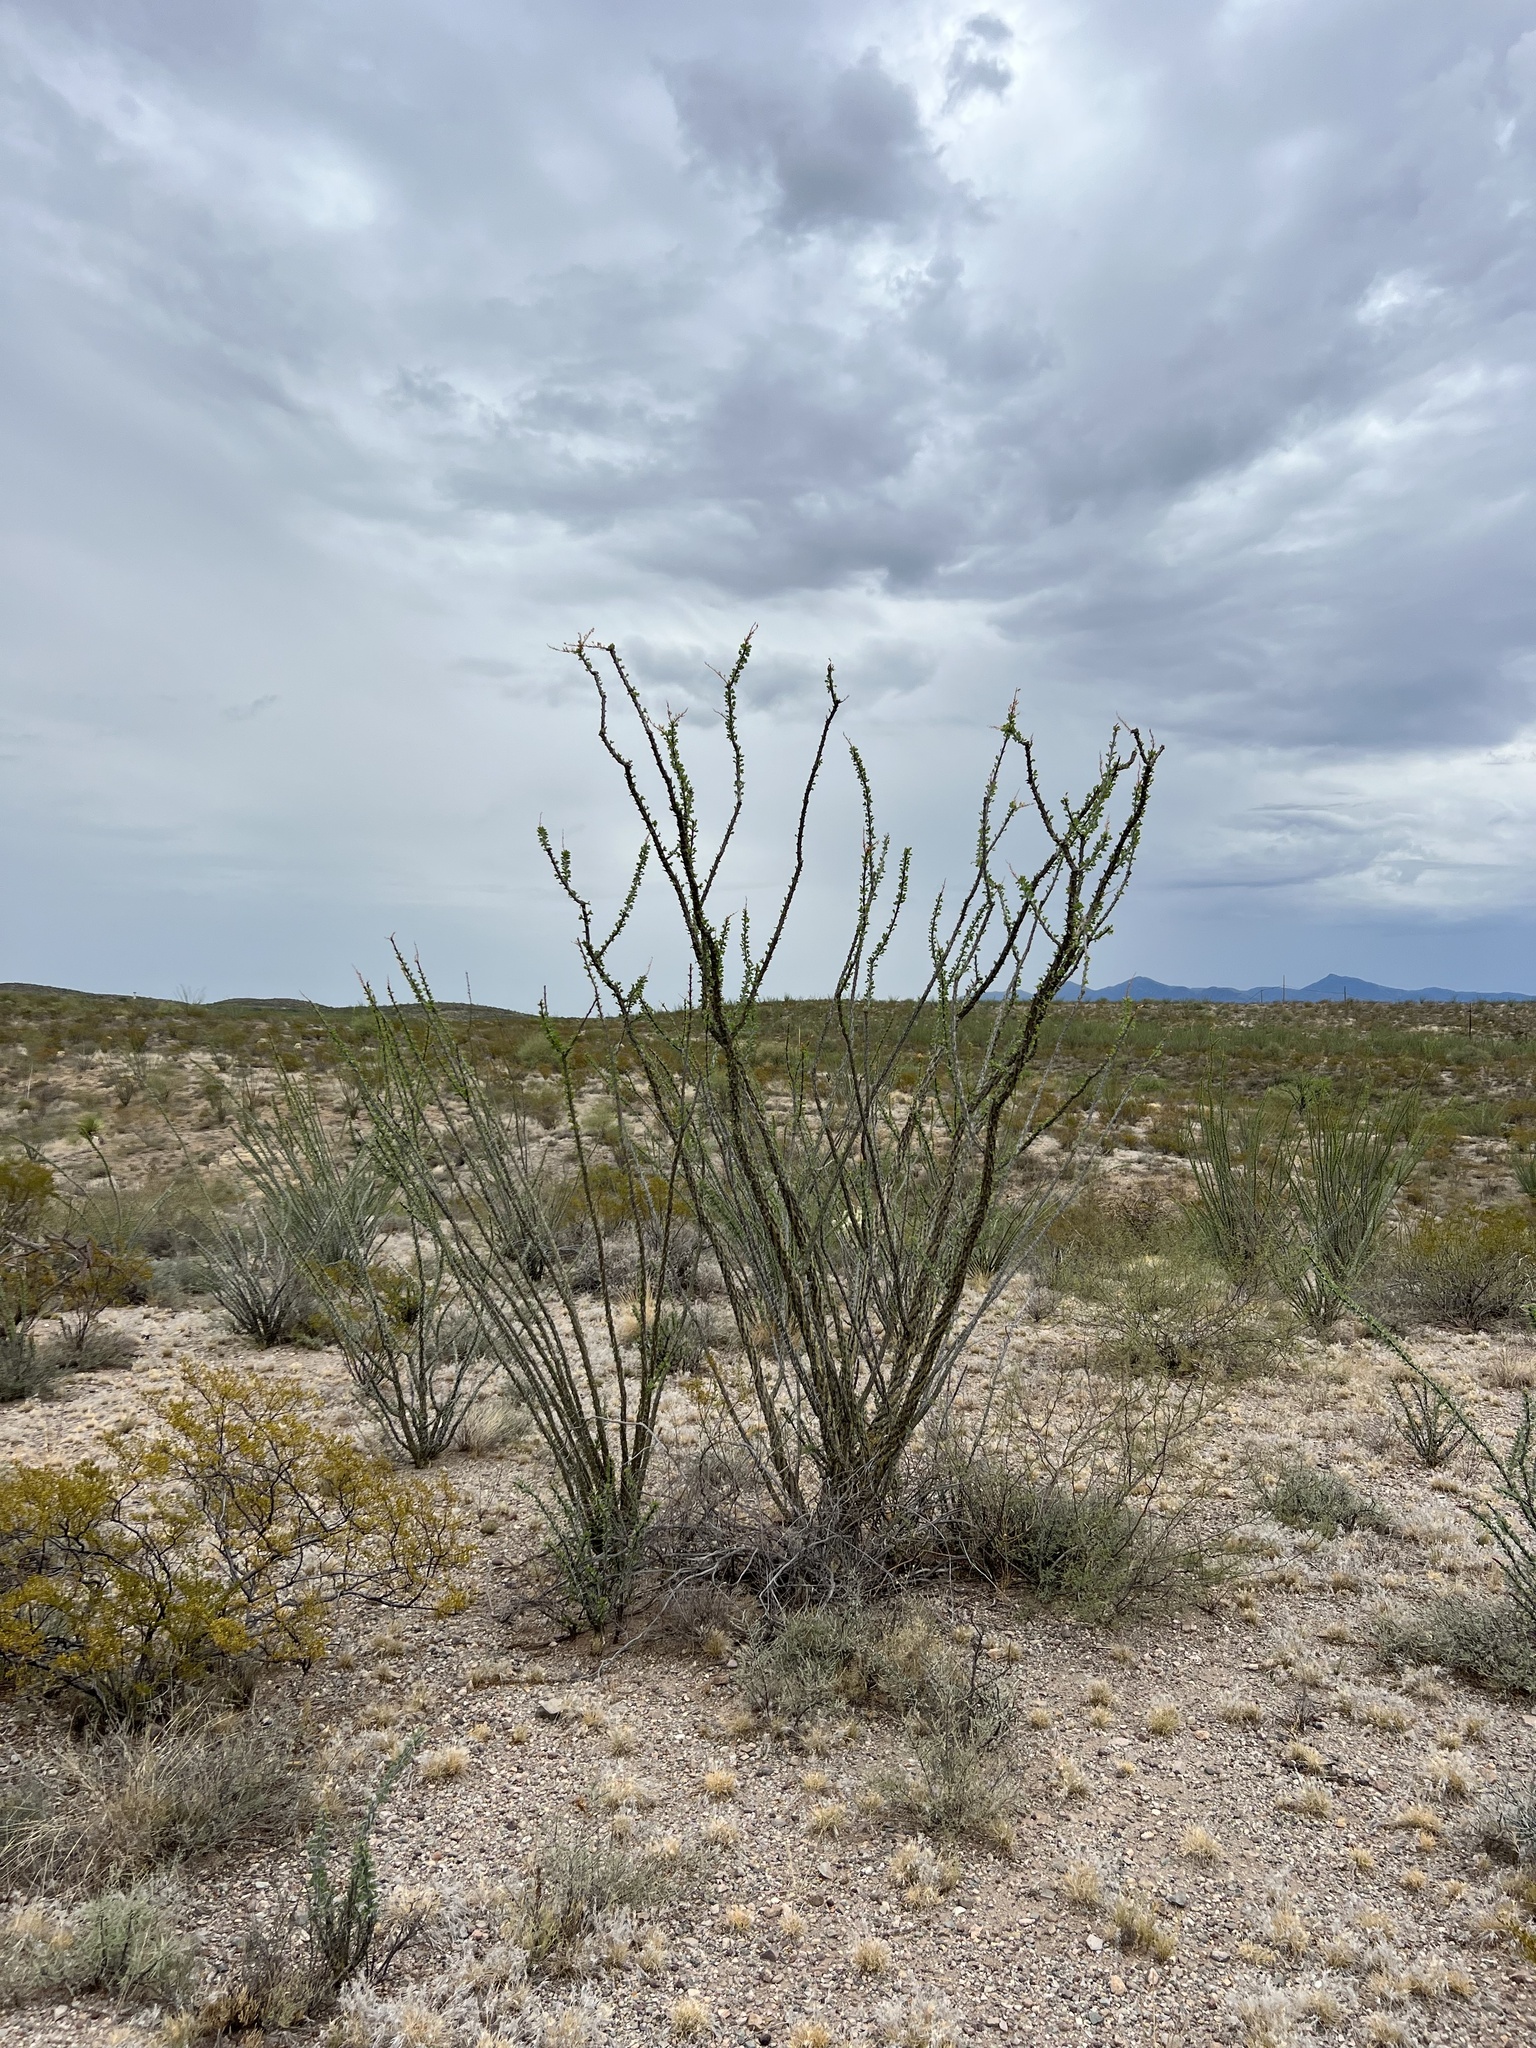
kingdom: Plantae
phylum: Tracheophyta
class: Magnoliopsida
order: Ericales
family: Fouquieriaceae
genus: Fouquieria
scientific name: Fouquieria splendens
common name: Vine-cactus
